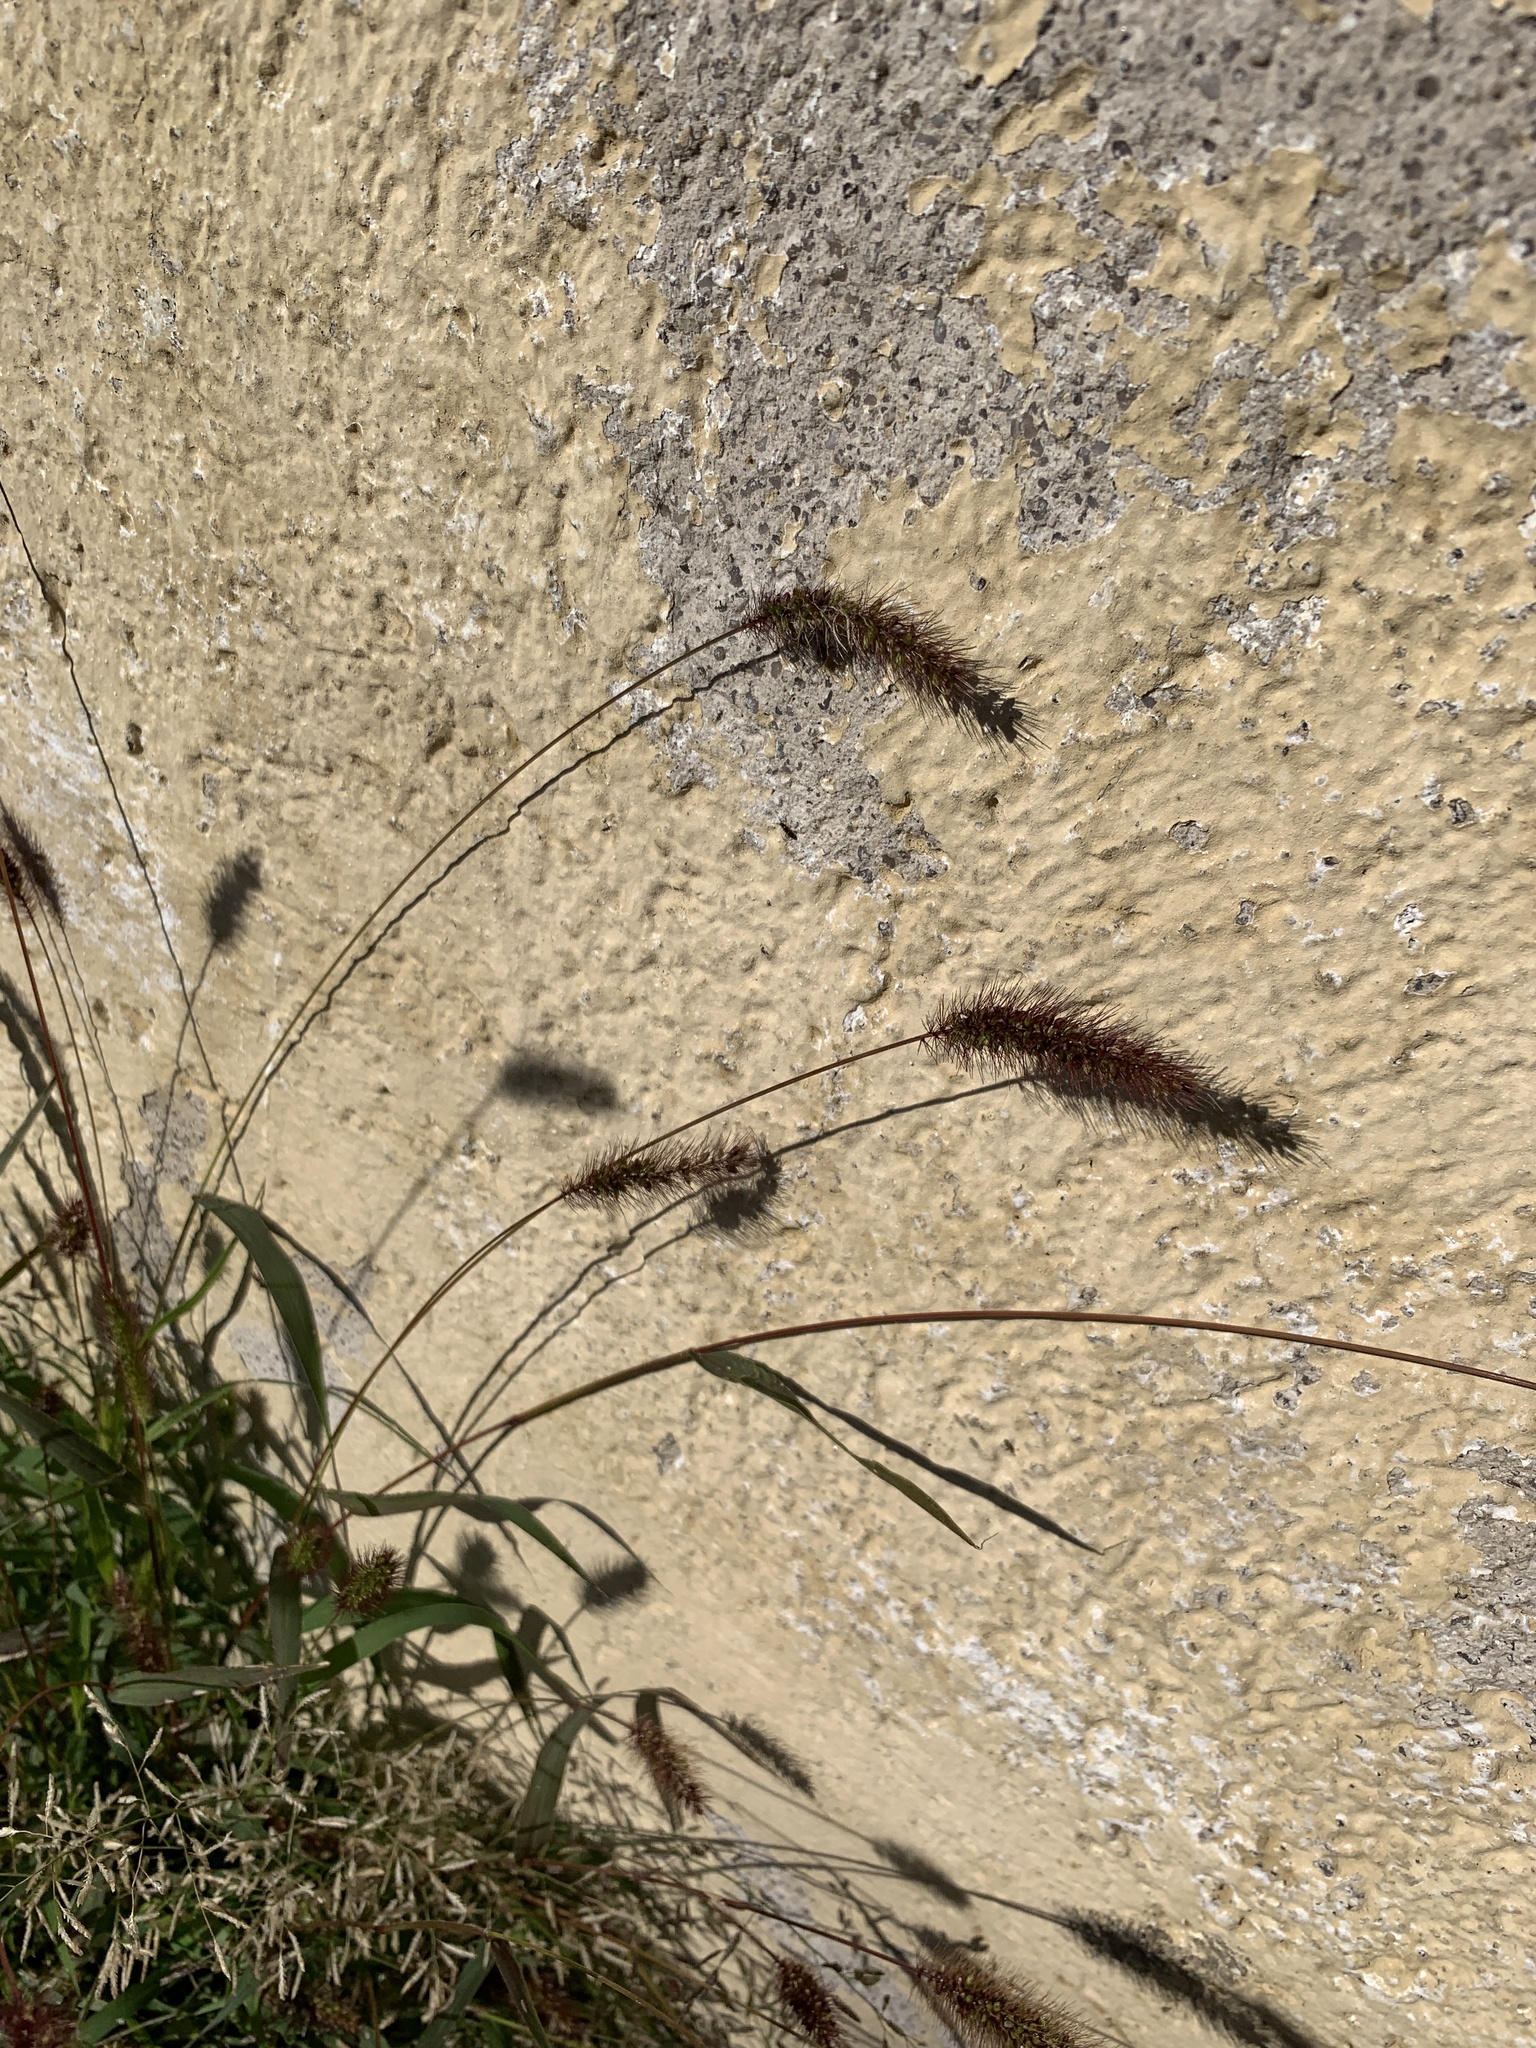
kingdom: Plantae
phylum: Tracheophyta
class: Liliopsida
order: Poales
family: Poaceae
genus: Setaria
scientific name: Setaria viridis
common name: Green bristlegrass
